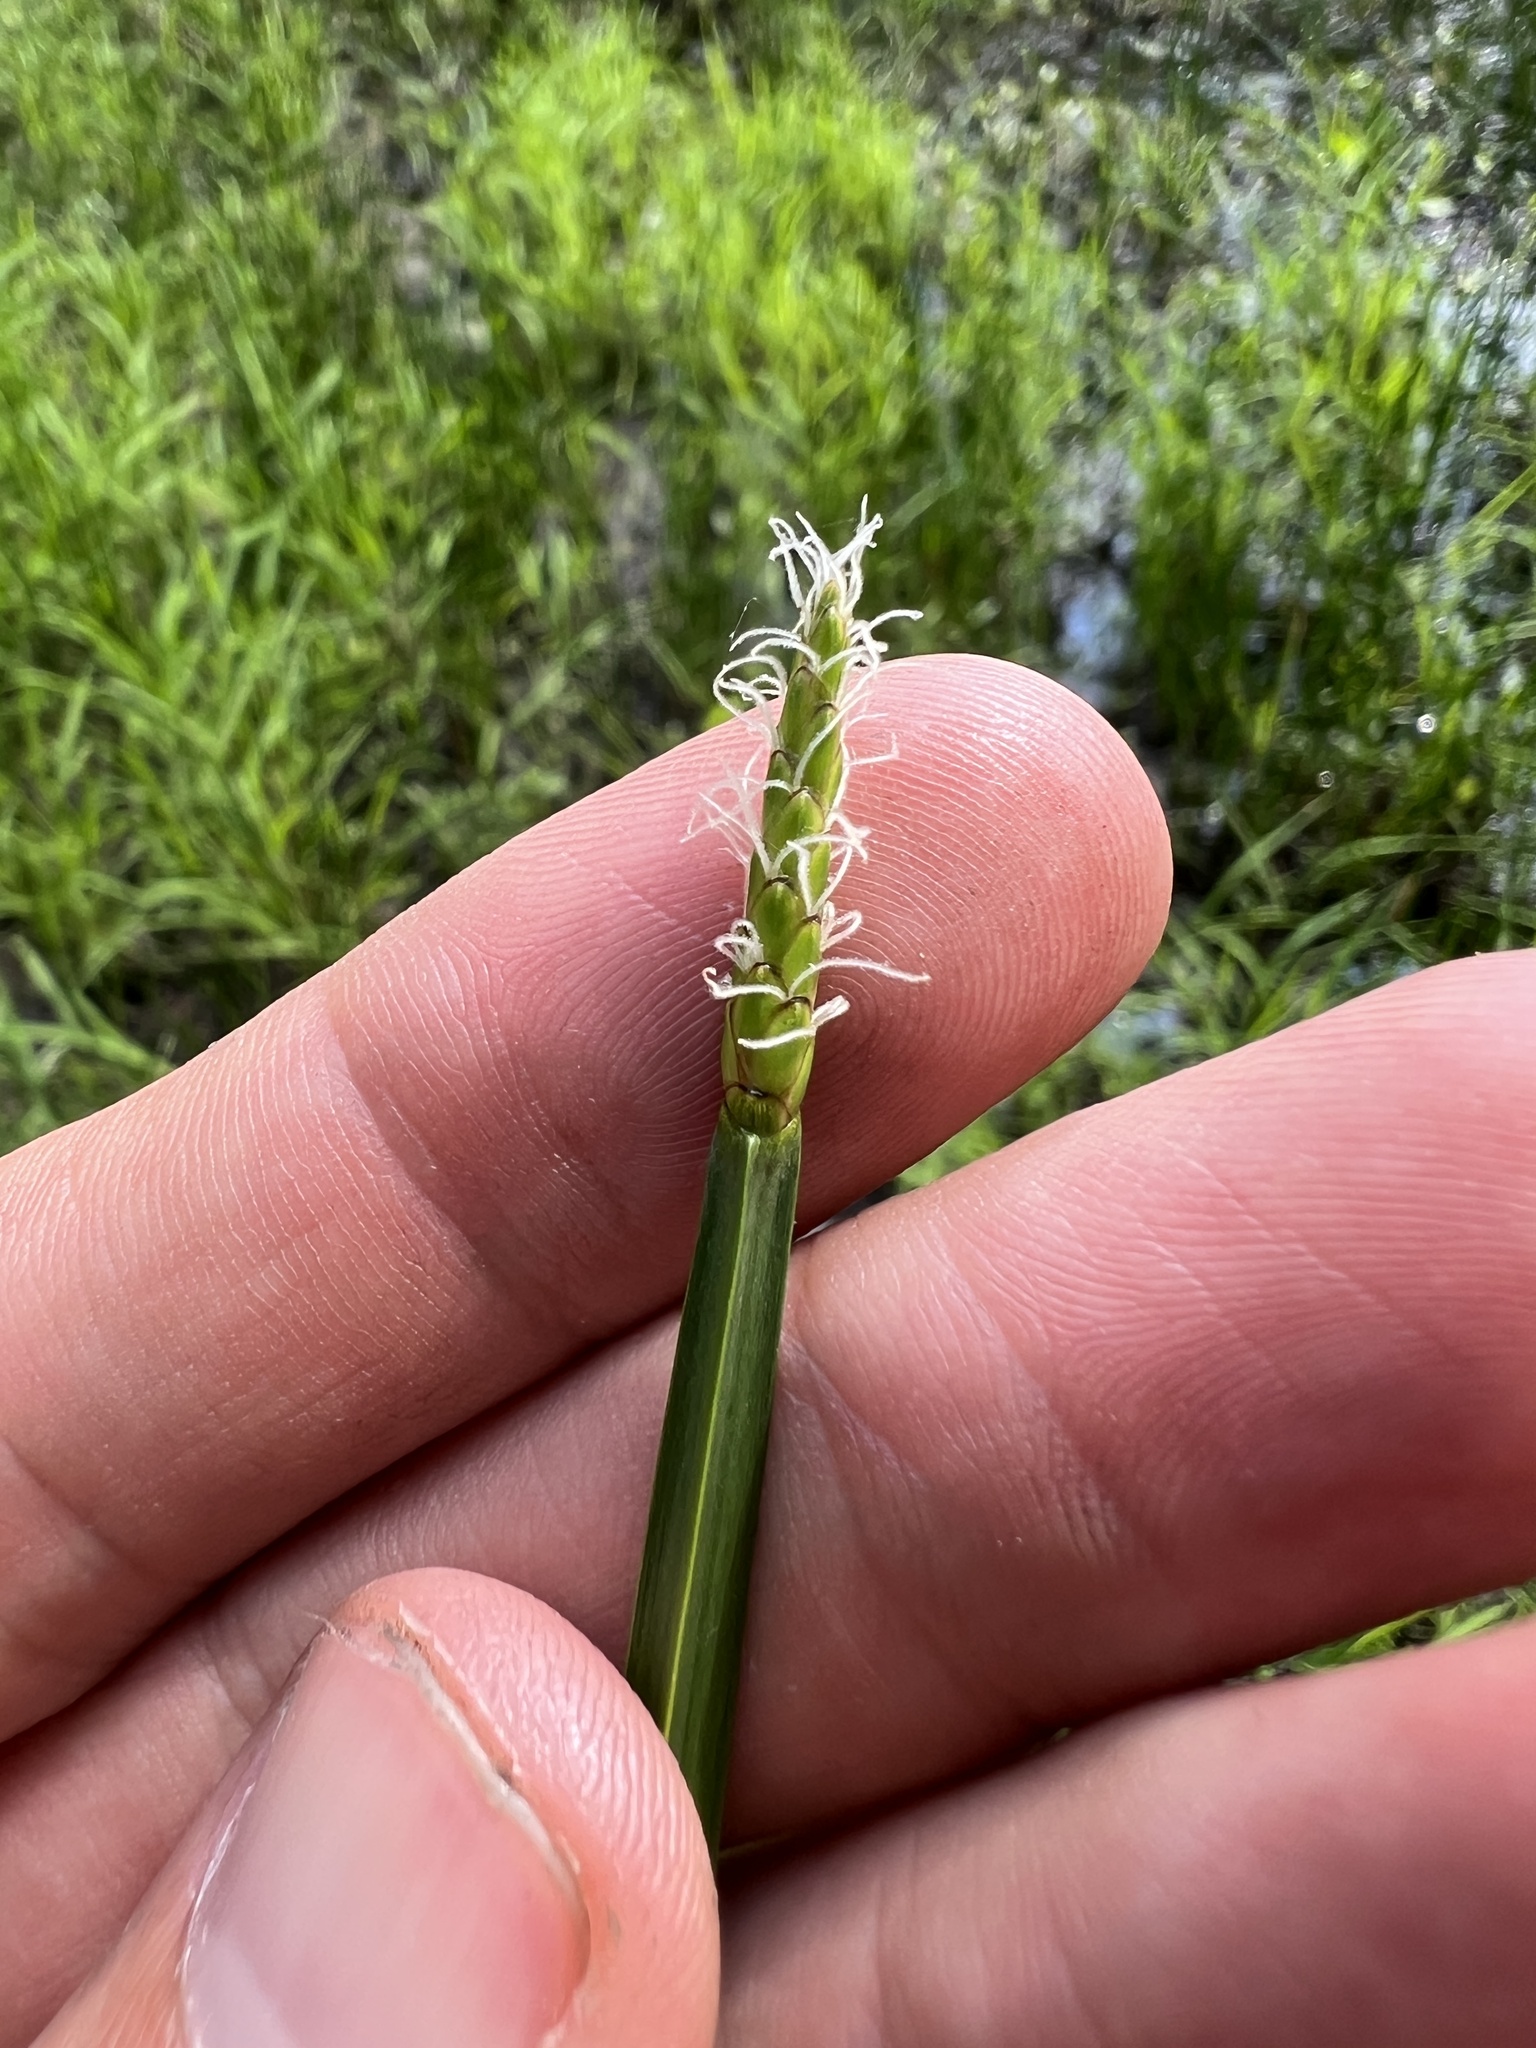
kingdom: Plantae
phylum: Tracheophyta
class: Liliopsida
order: Poales
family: Cyperaceae
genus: Eleocharis
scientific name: Eleocharis quadrangulata
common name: Square-stem spike-rush
